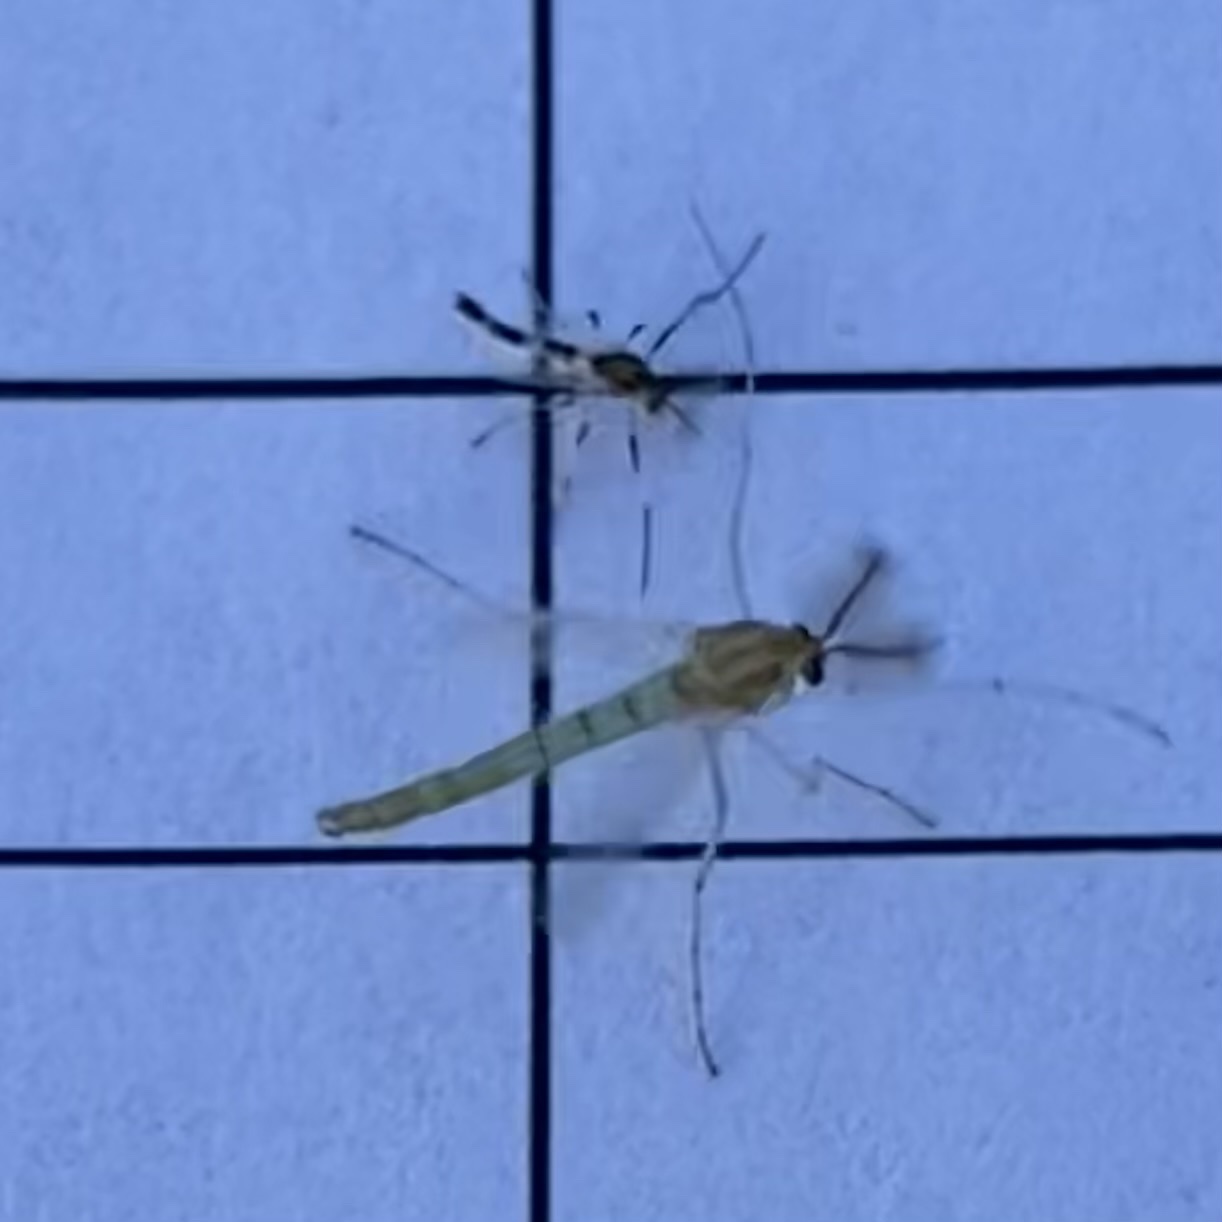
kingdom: Animalia
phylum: Arthropoda
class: Insecta
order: Diptera
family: Chironomidae
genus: Cricotopus
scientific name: Cricotopus
